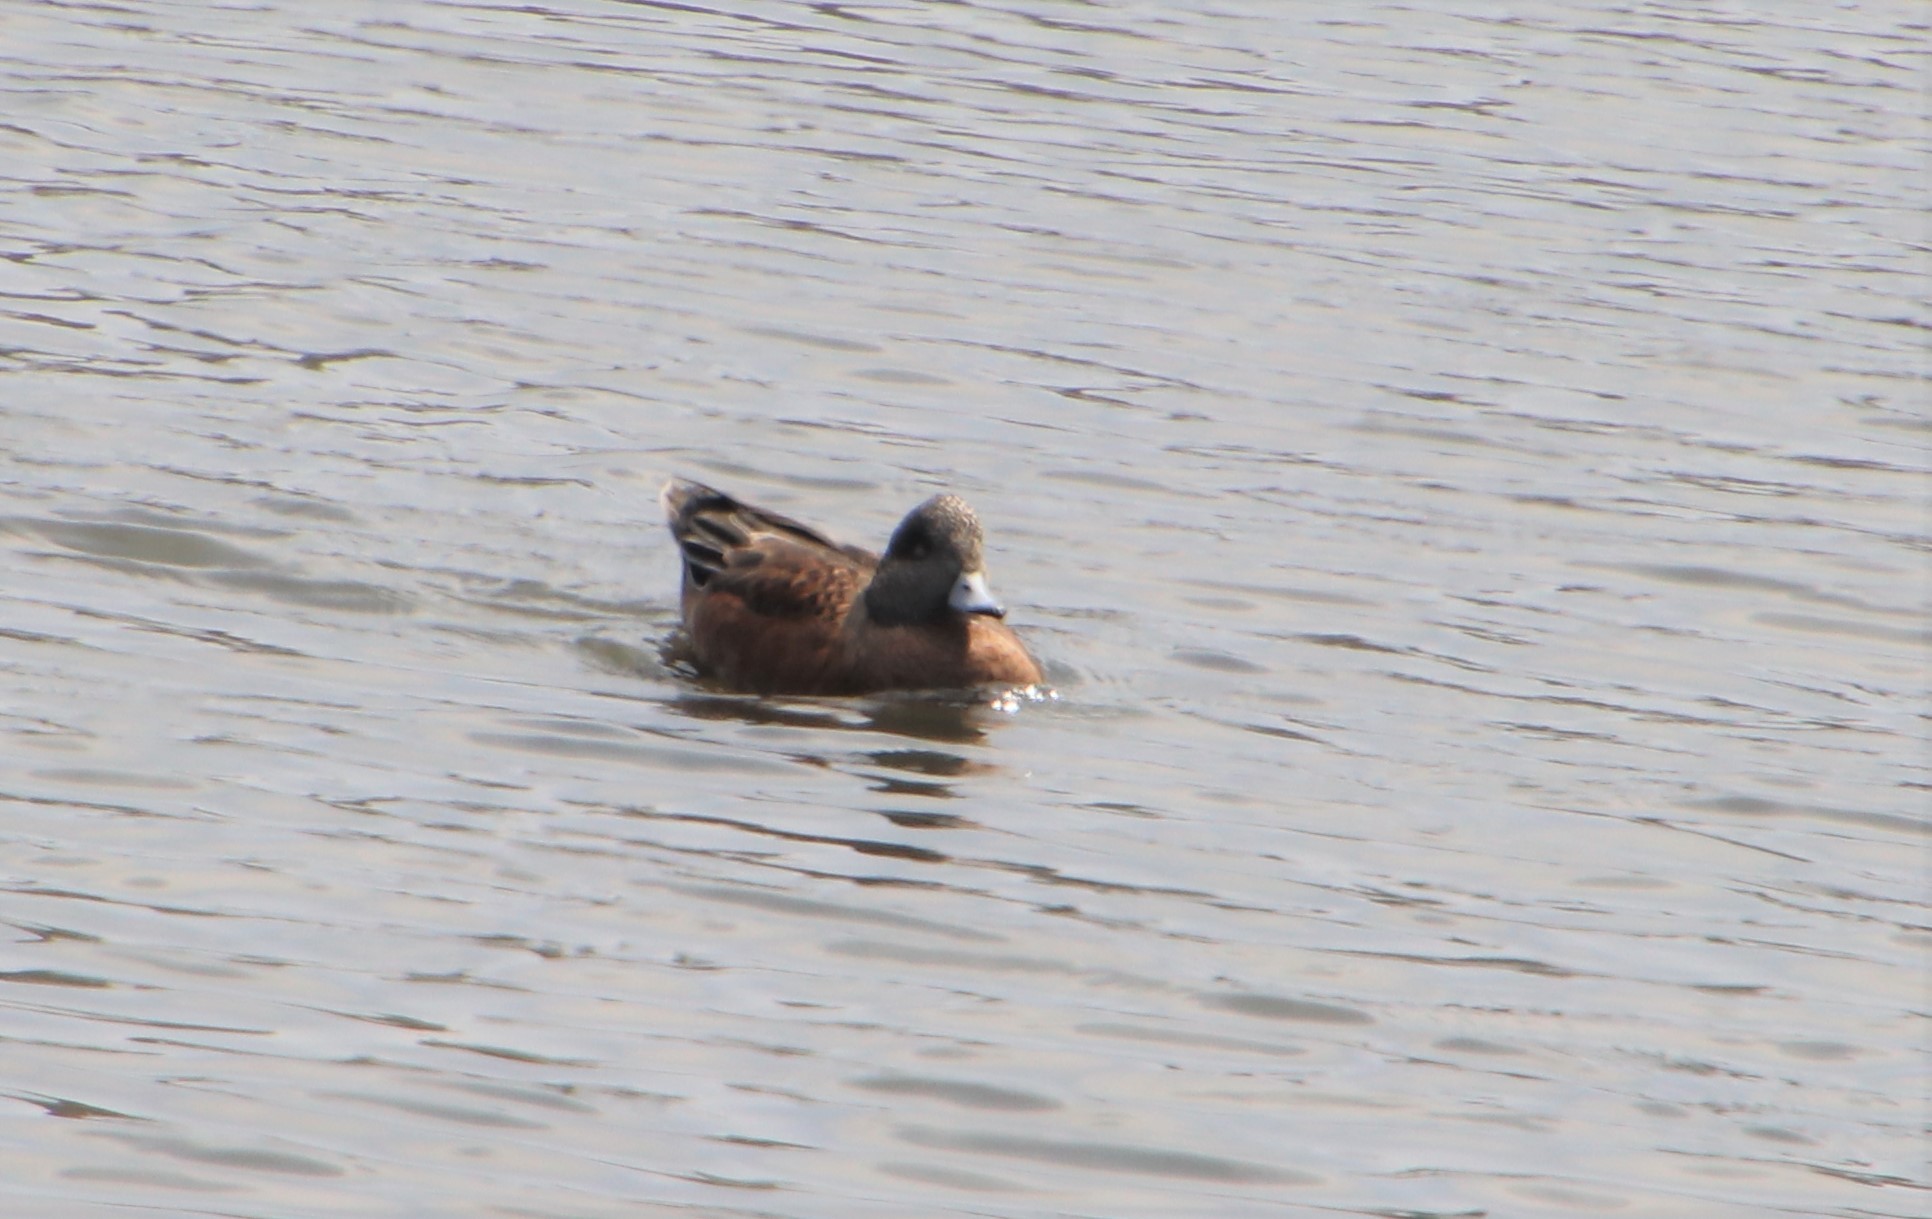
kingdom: Animalia
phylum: Chordata
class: Aves
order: Anseriformes
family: Anatidae
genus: Mareca
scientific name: Mareca americana
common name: American wigeon
